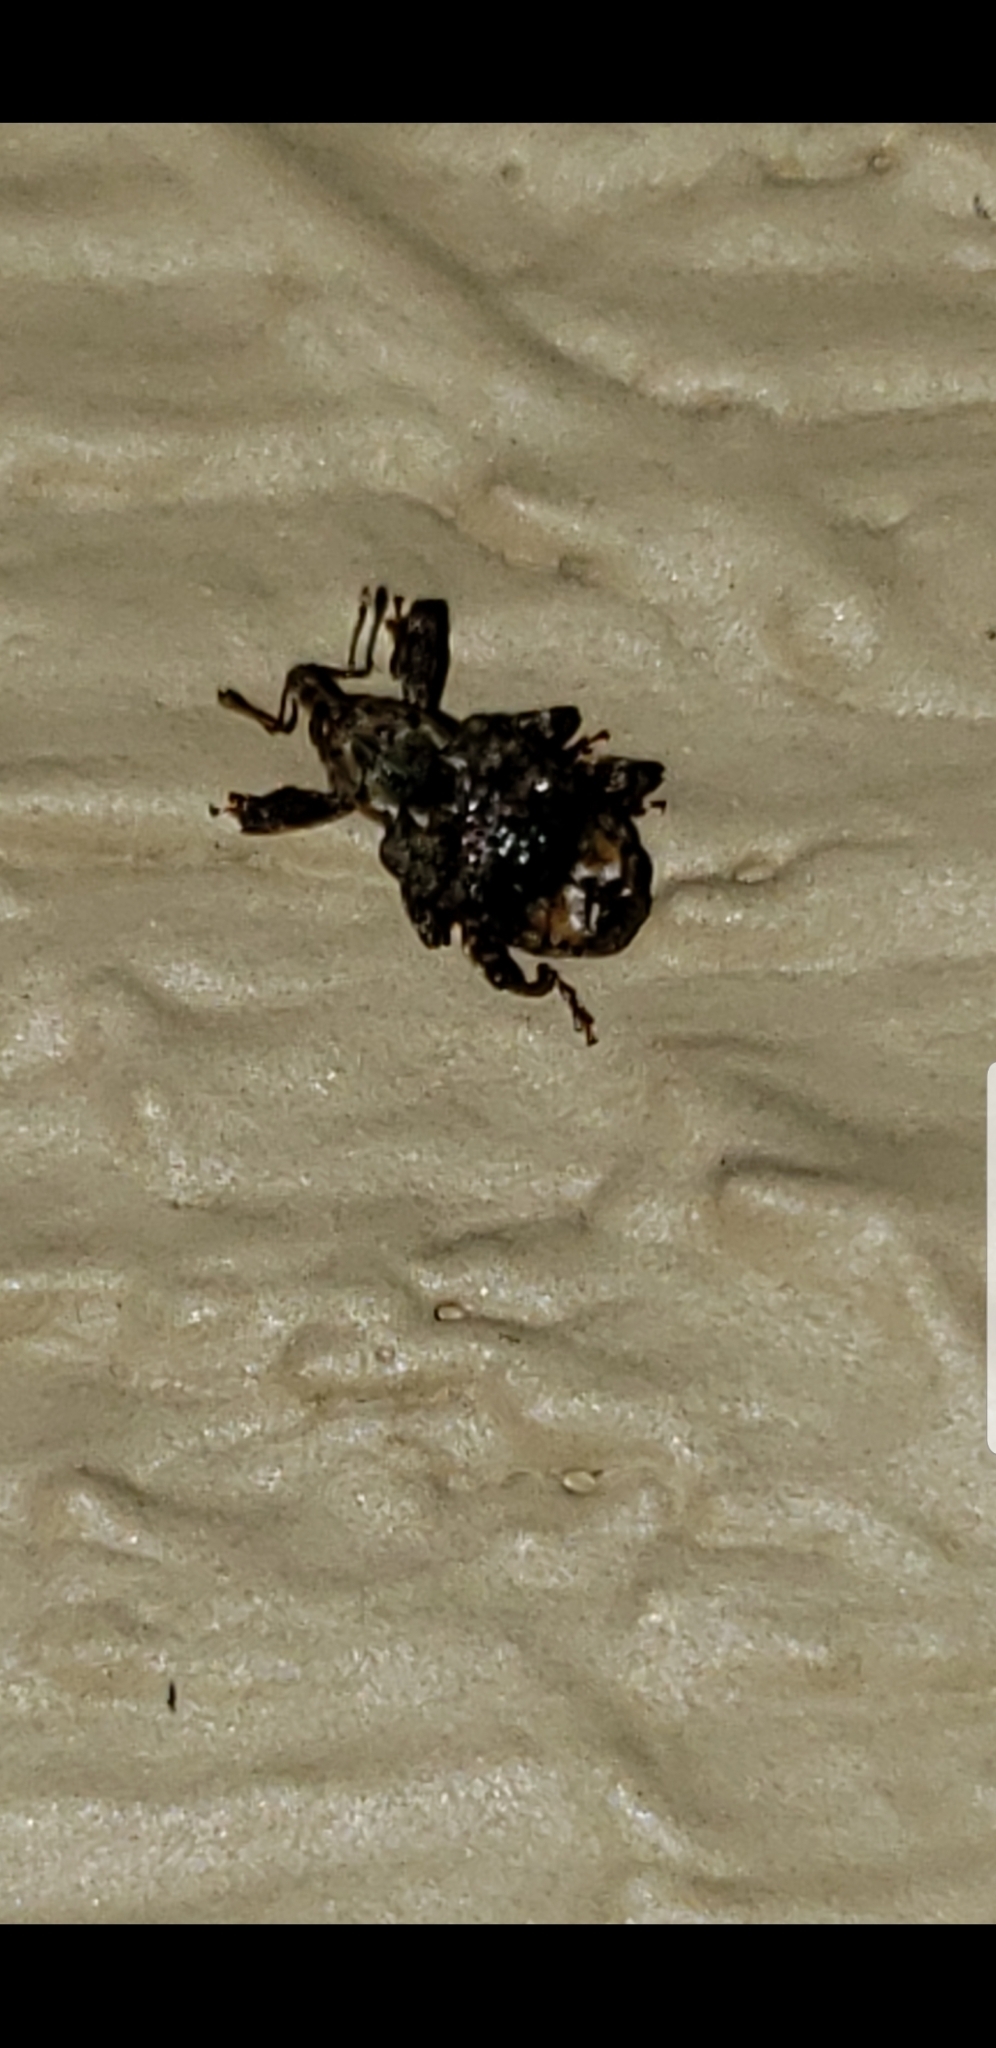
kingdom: Animalia
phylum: Arthropoda
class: Insecta
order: Coleoptera
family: Curculionidae
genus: Conotrachelus
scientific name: Conotrachelus nenuphar
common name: Plum curculio
